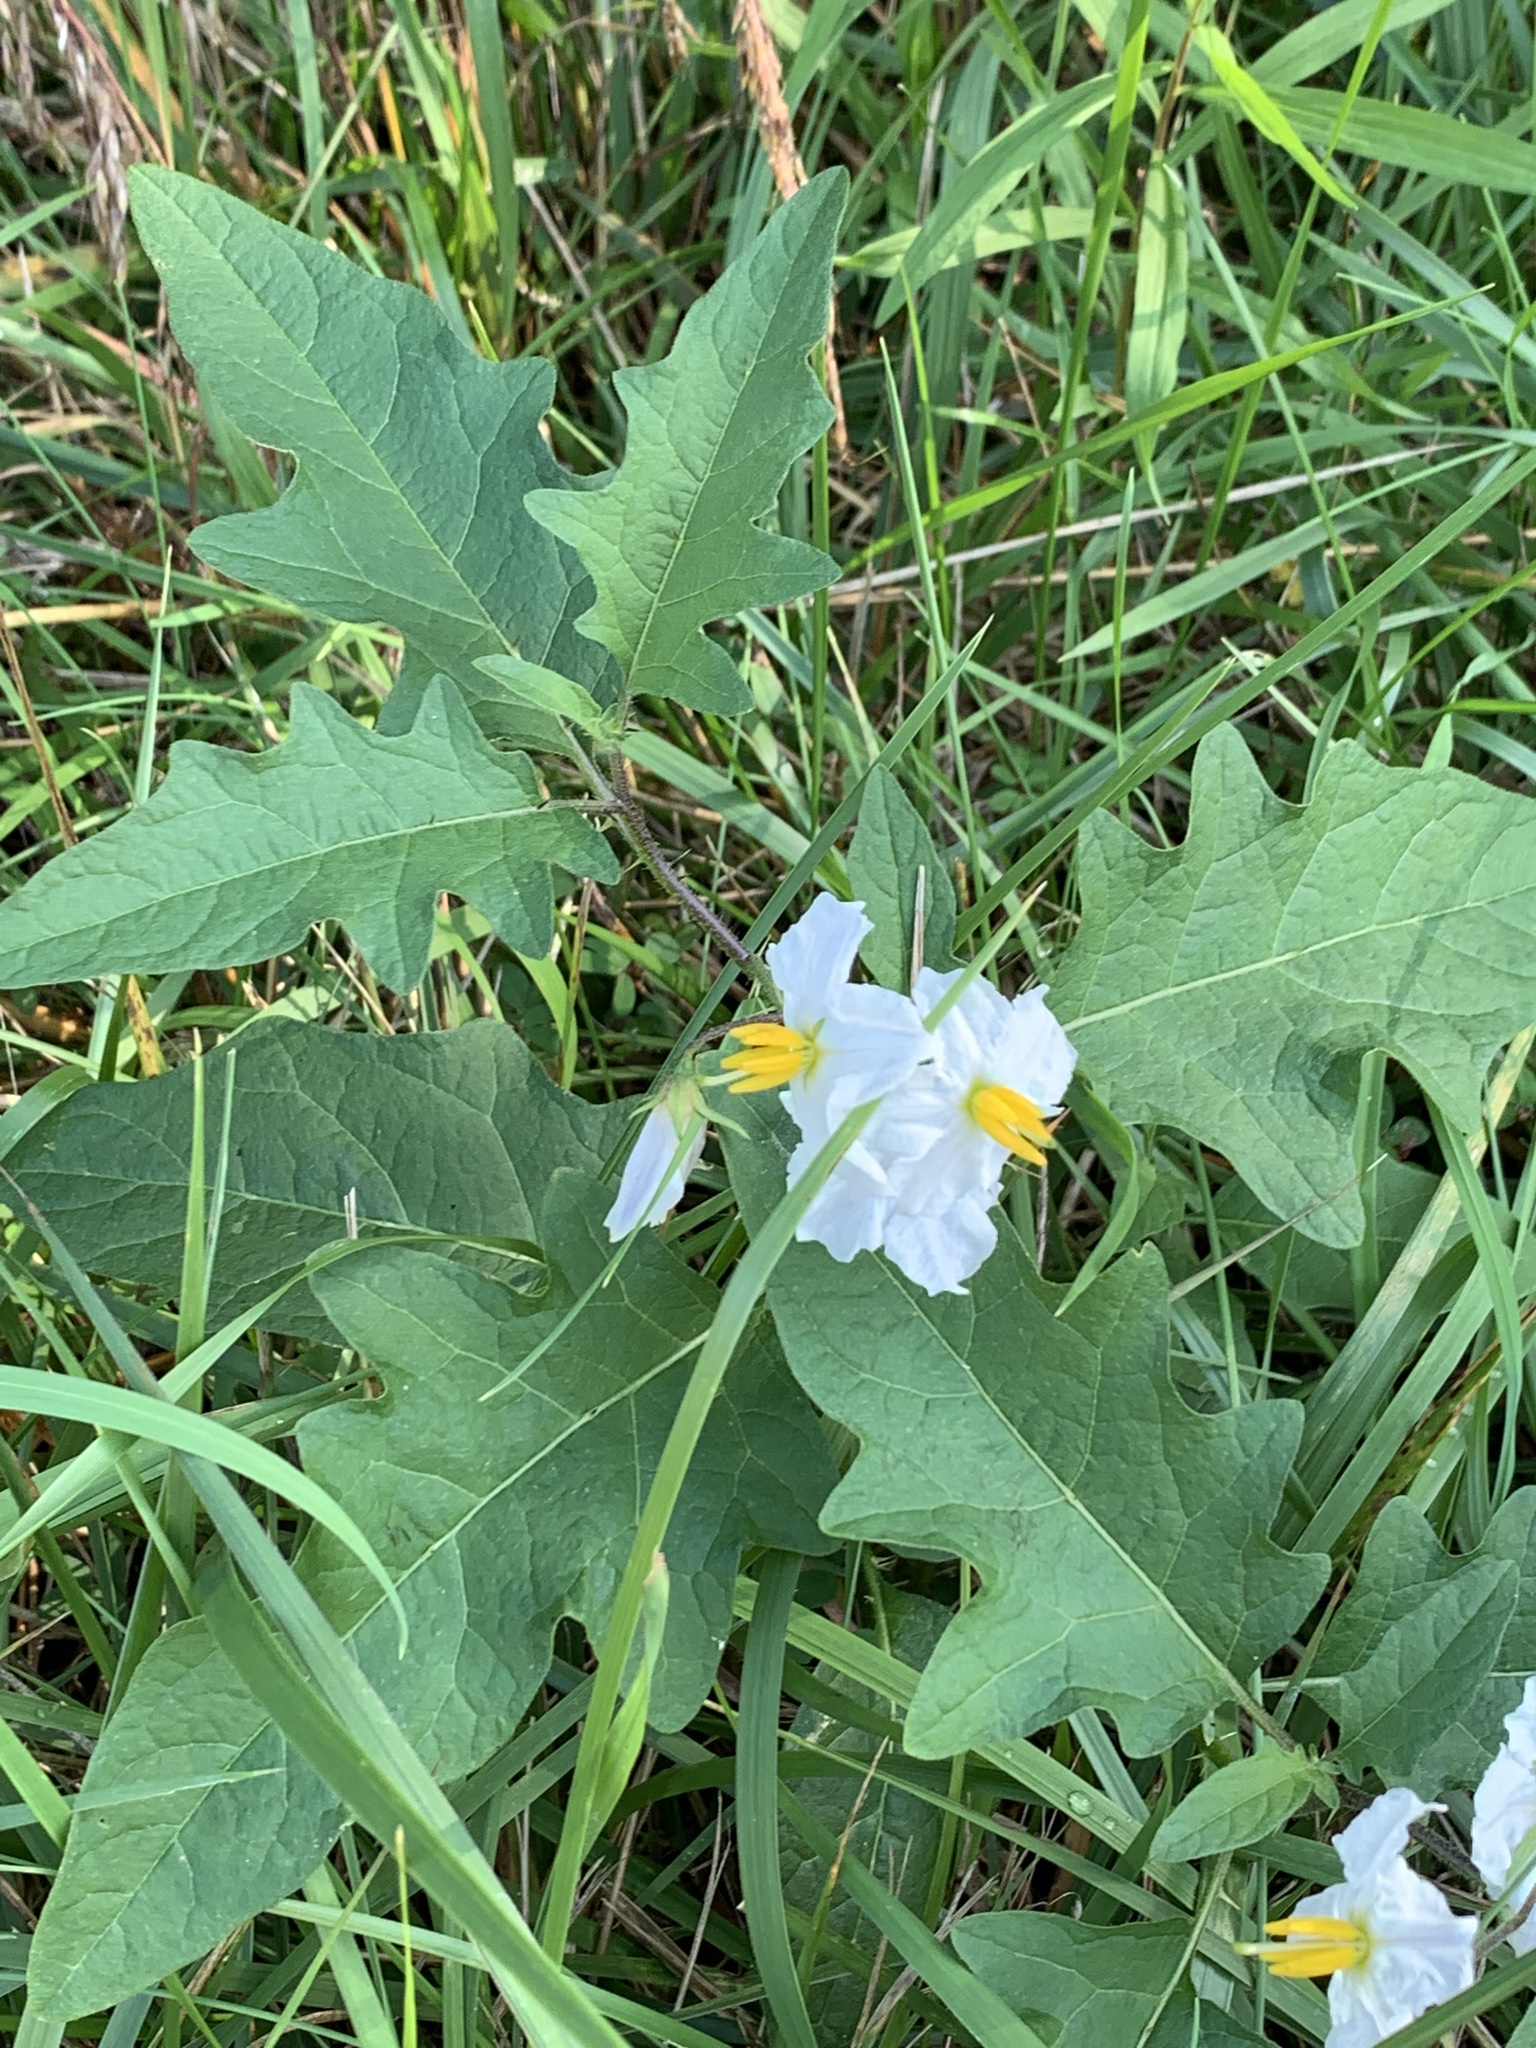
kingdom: Plantae
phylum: Tracheophyta
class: Magnoliopsida
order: Solanales
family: Solanaceae
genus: Solanum
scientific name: Solanum carolinense
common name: Horse-nettle
